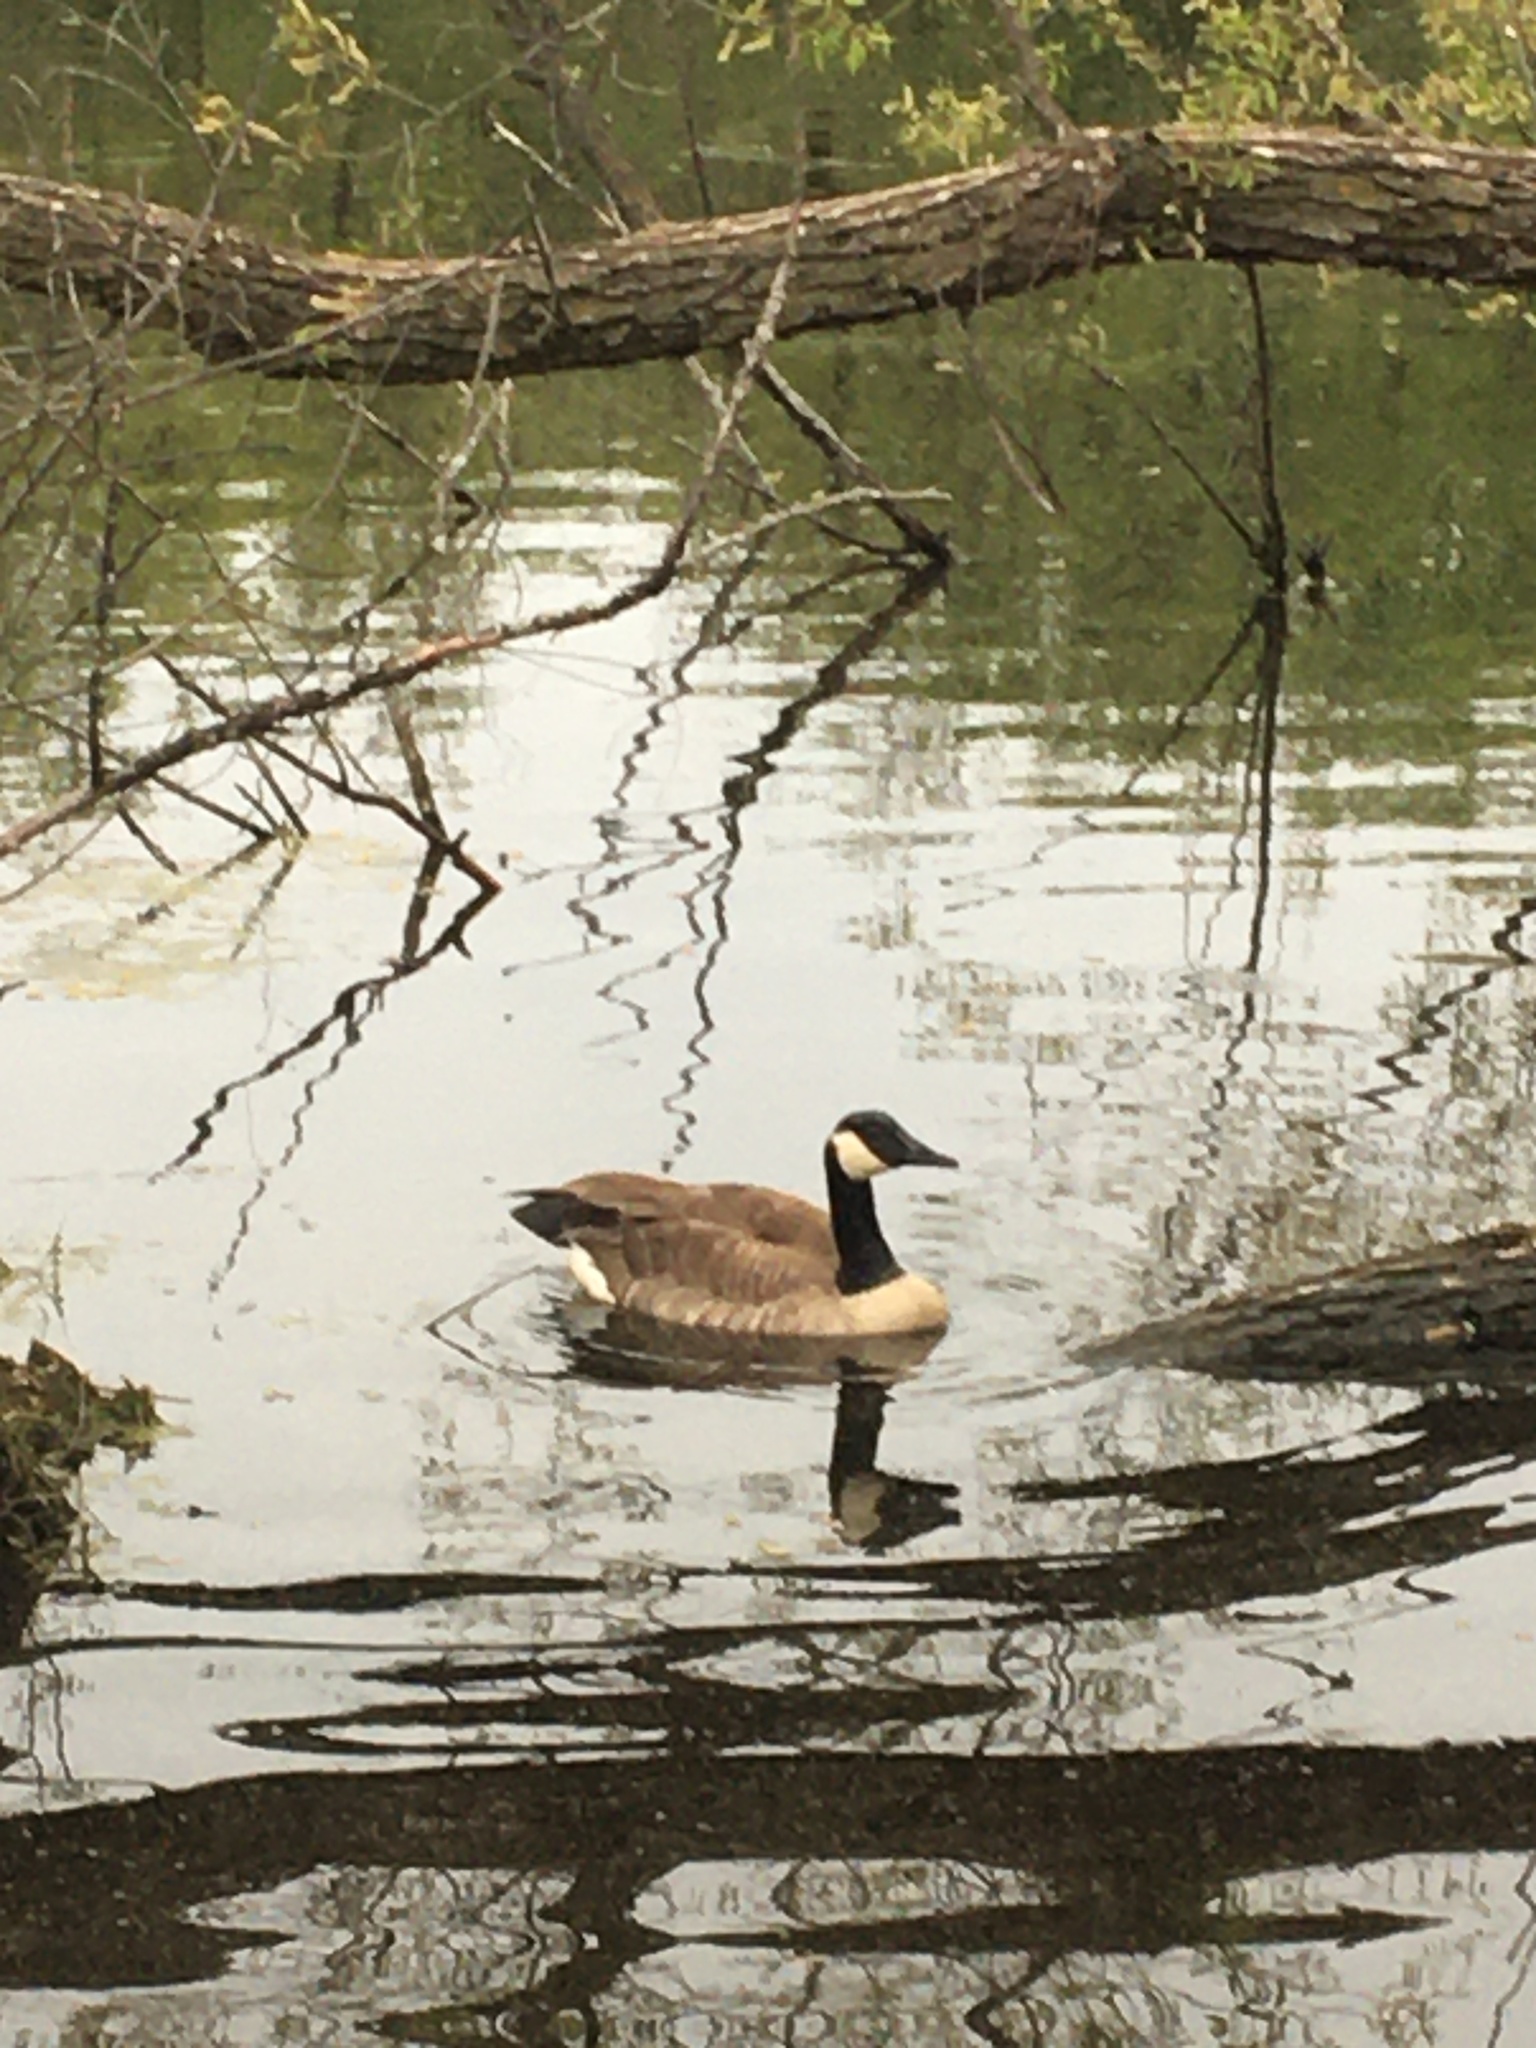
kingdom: Animalia
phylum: Chordata
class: Aves
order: Anseriformes
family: Anatidae
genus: Branta
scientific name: Branta canadensis
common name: Canada goose
